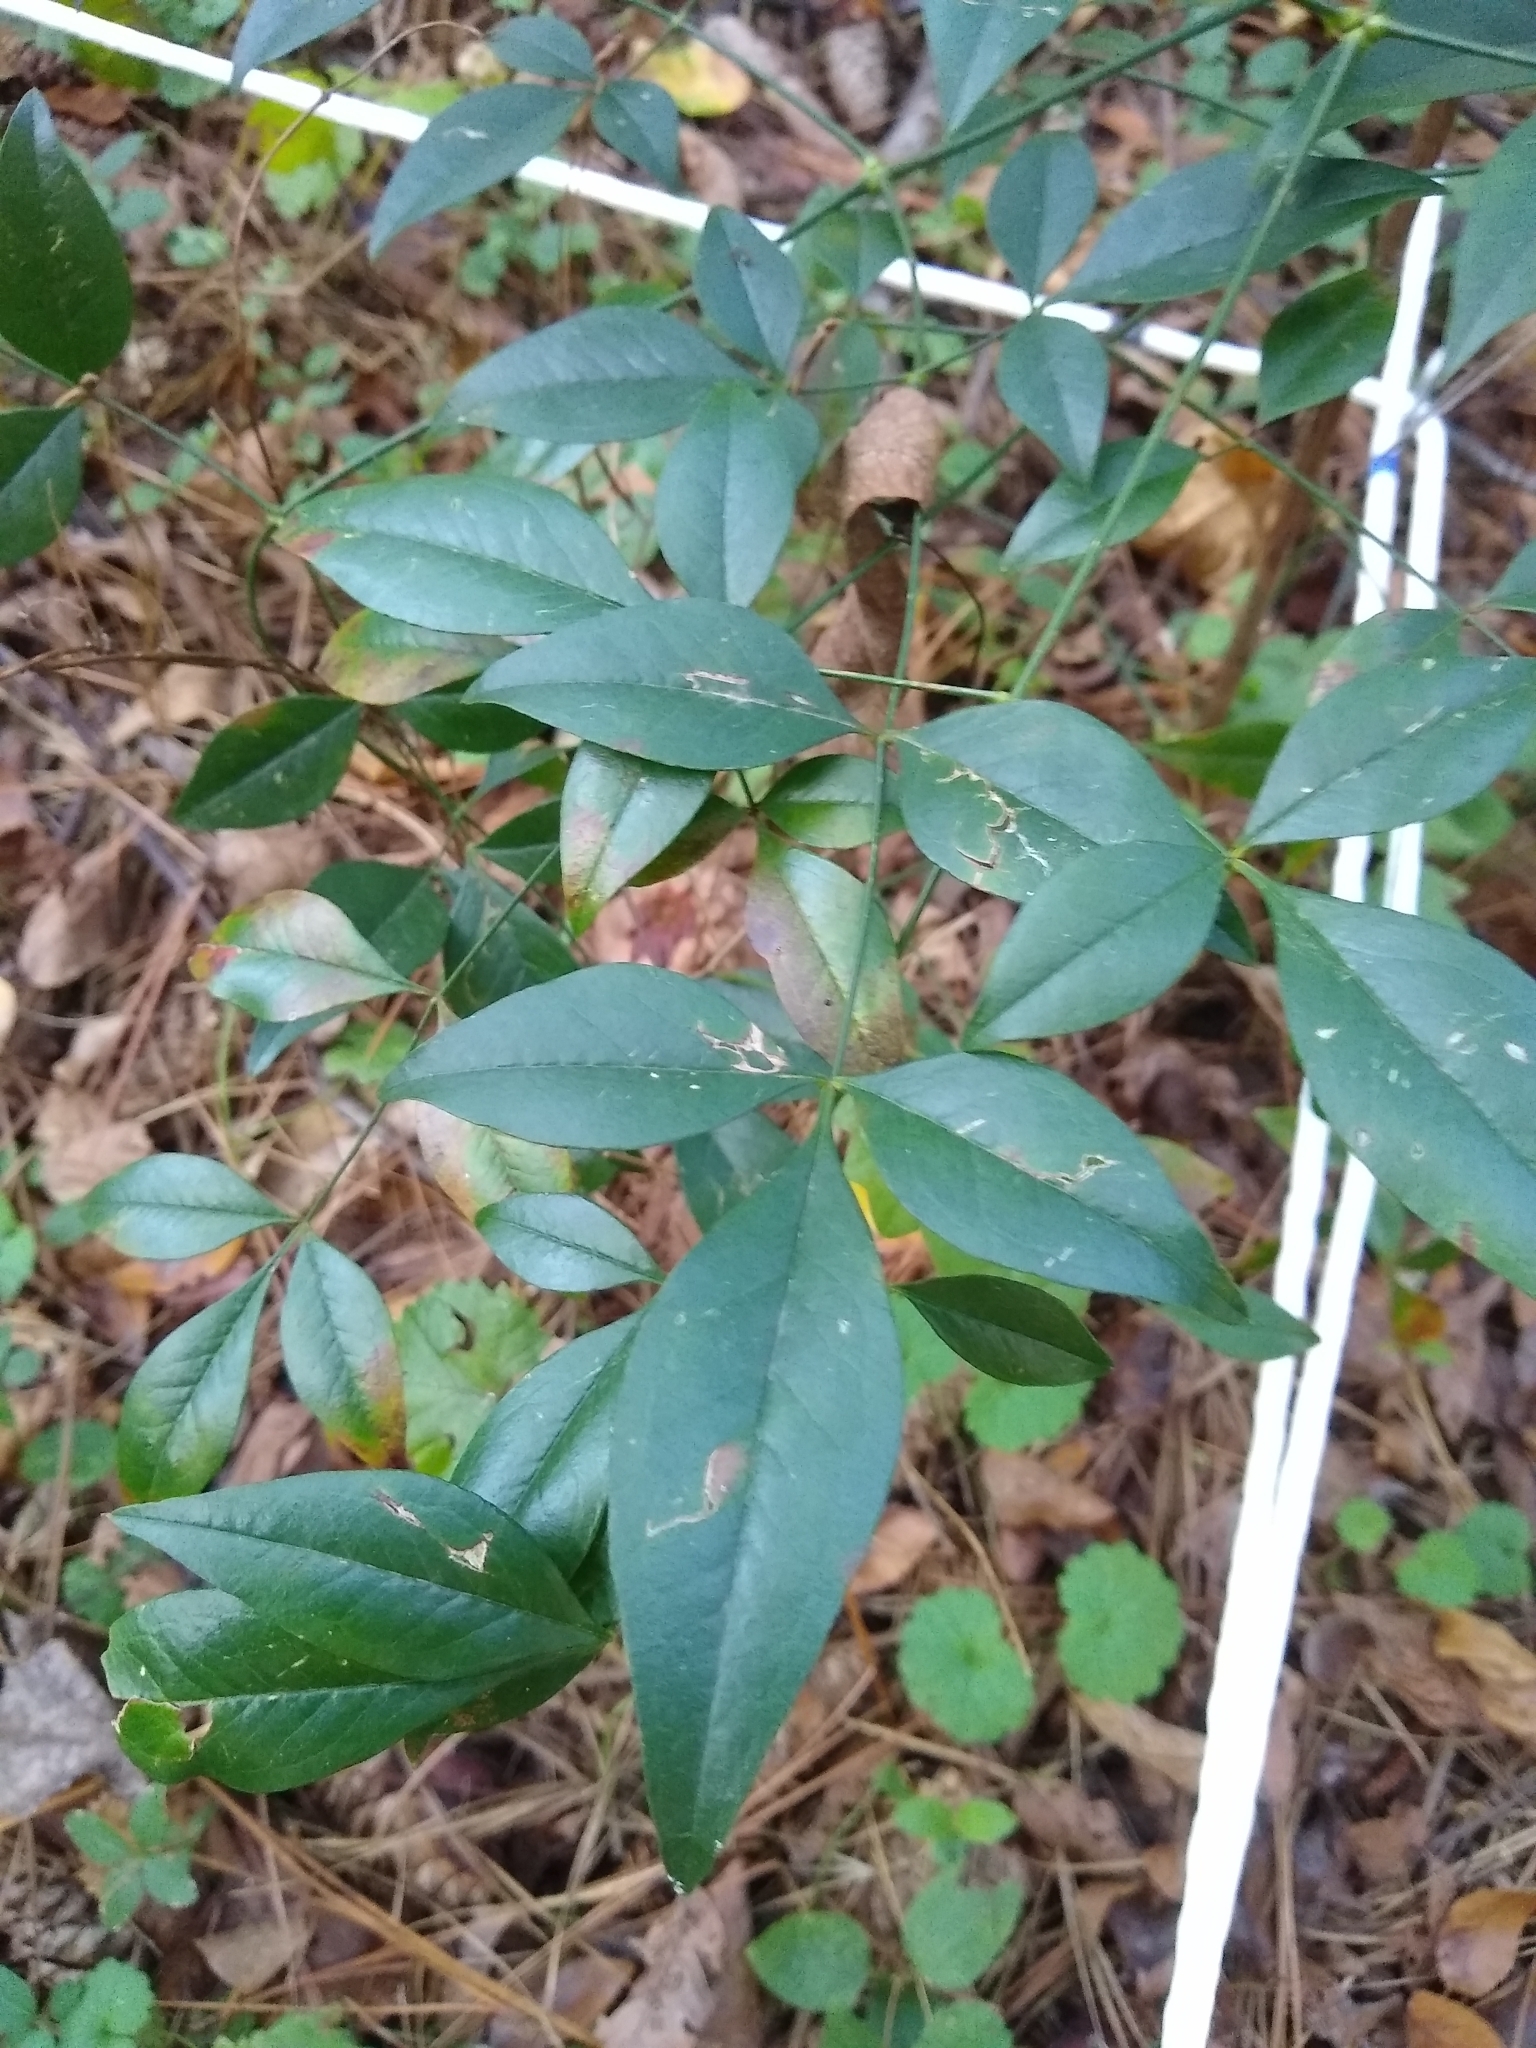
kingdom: Plantae
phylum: Tracheophyta
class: Magnoliopsida
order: Ranunculales
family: Berberidaceae
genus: Nandina
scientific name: Nandina domestica
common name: Sacred bamboo
